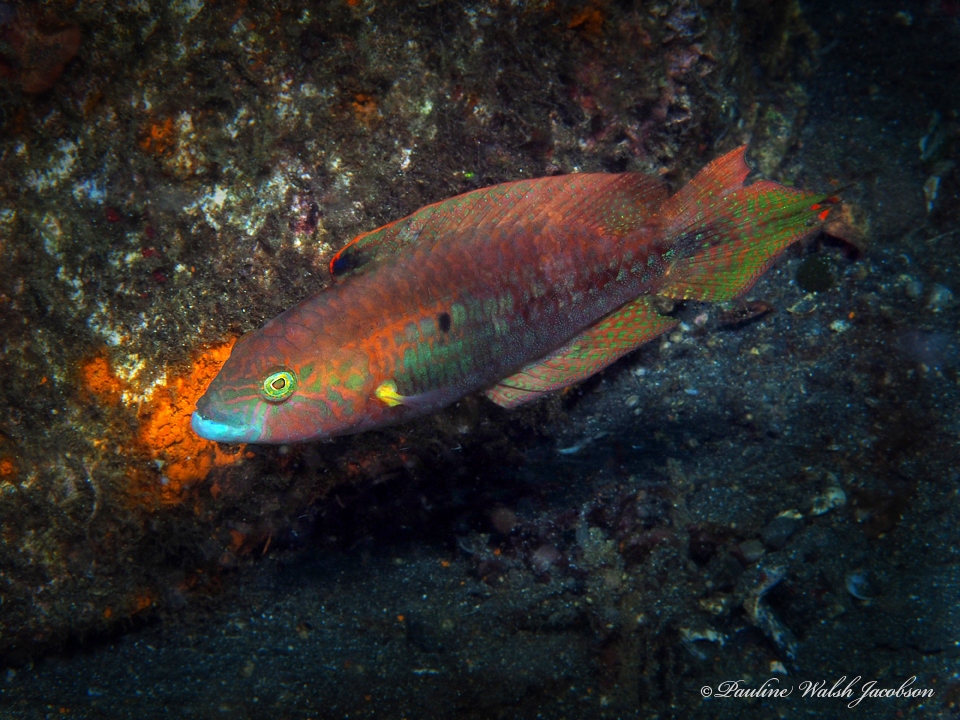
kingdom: Animalia
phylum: Chordata
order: Perciformes
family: Labridae
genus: Oxycheilinus
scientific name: Oxycheilinus bimaculatus
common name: Comettailed wrasse
